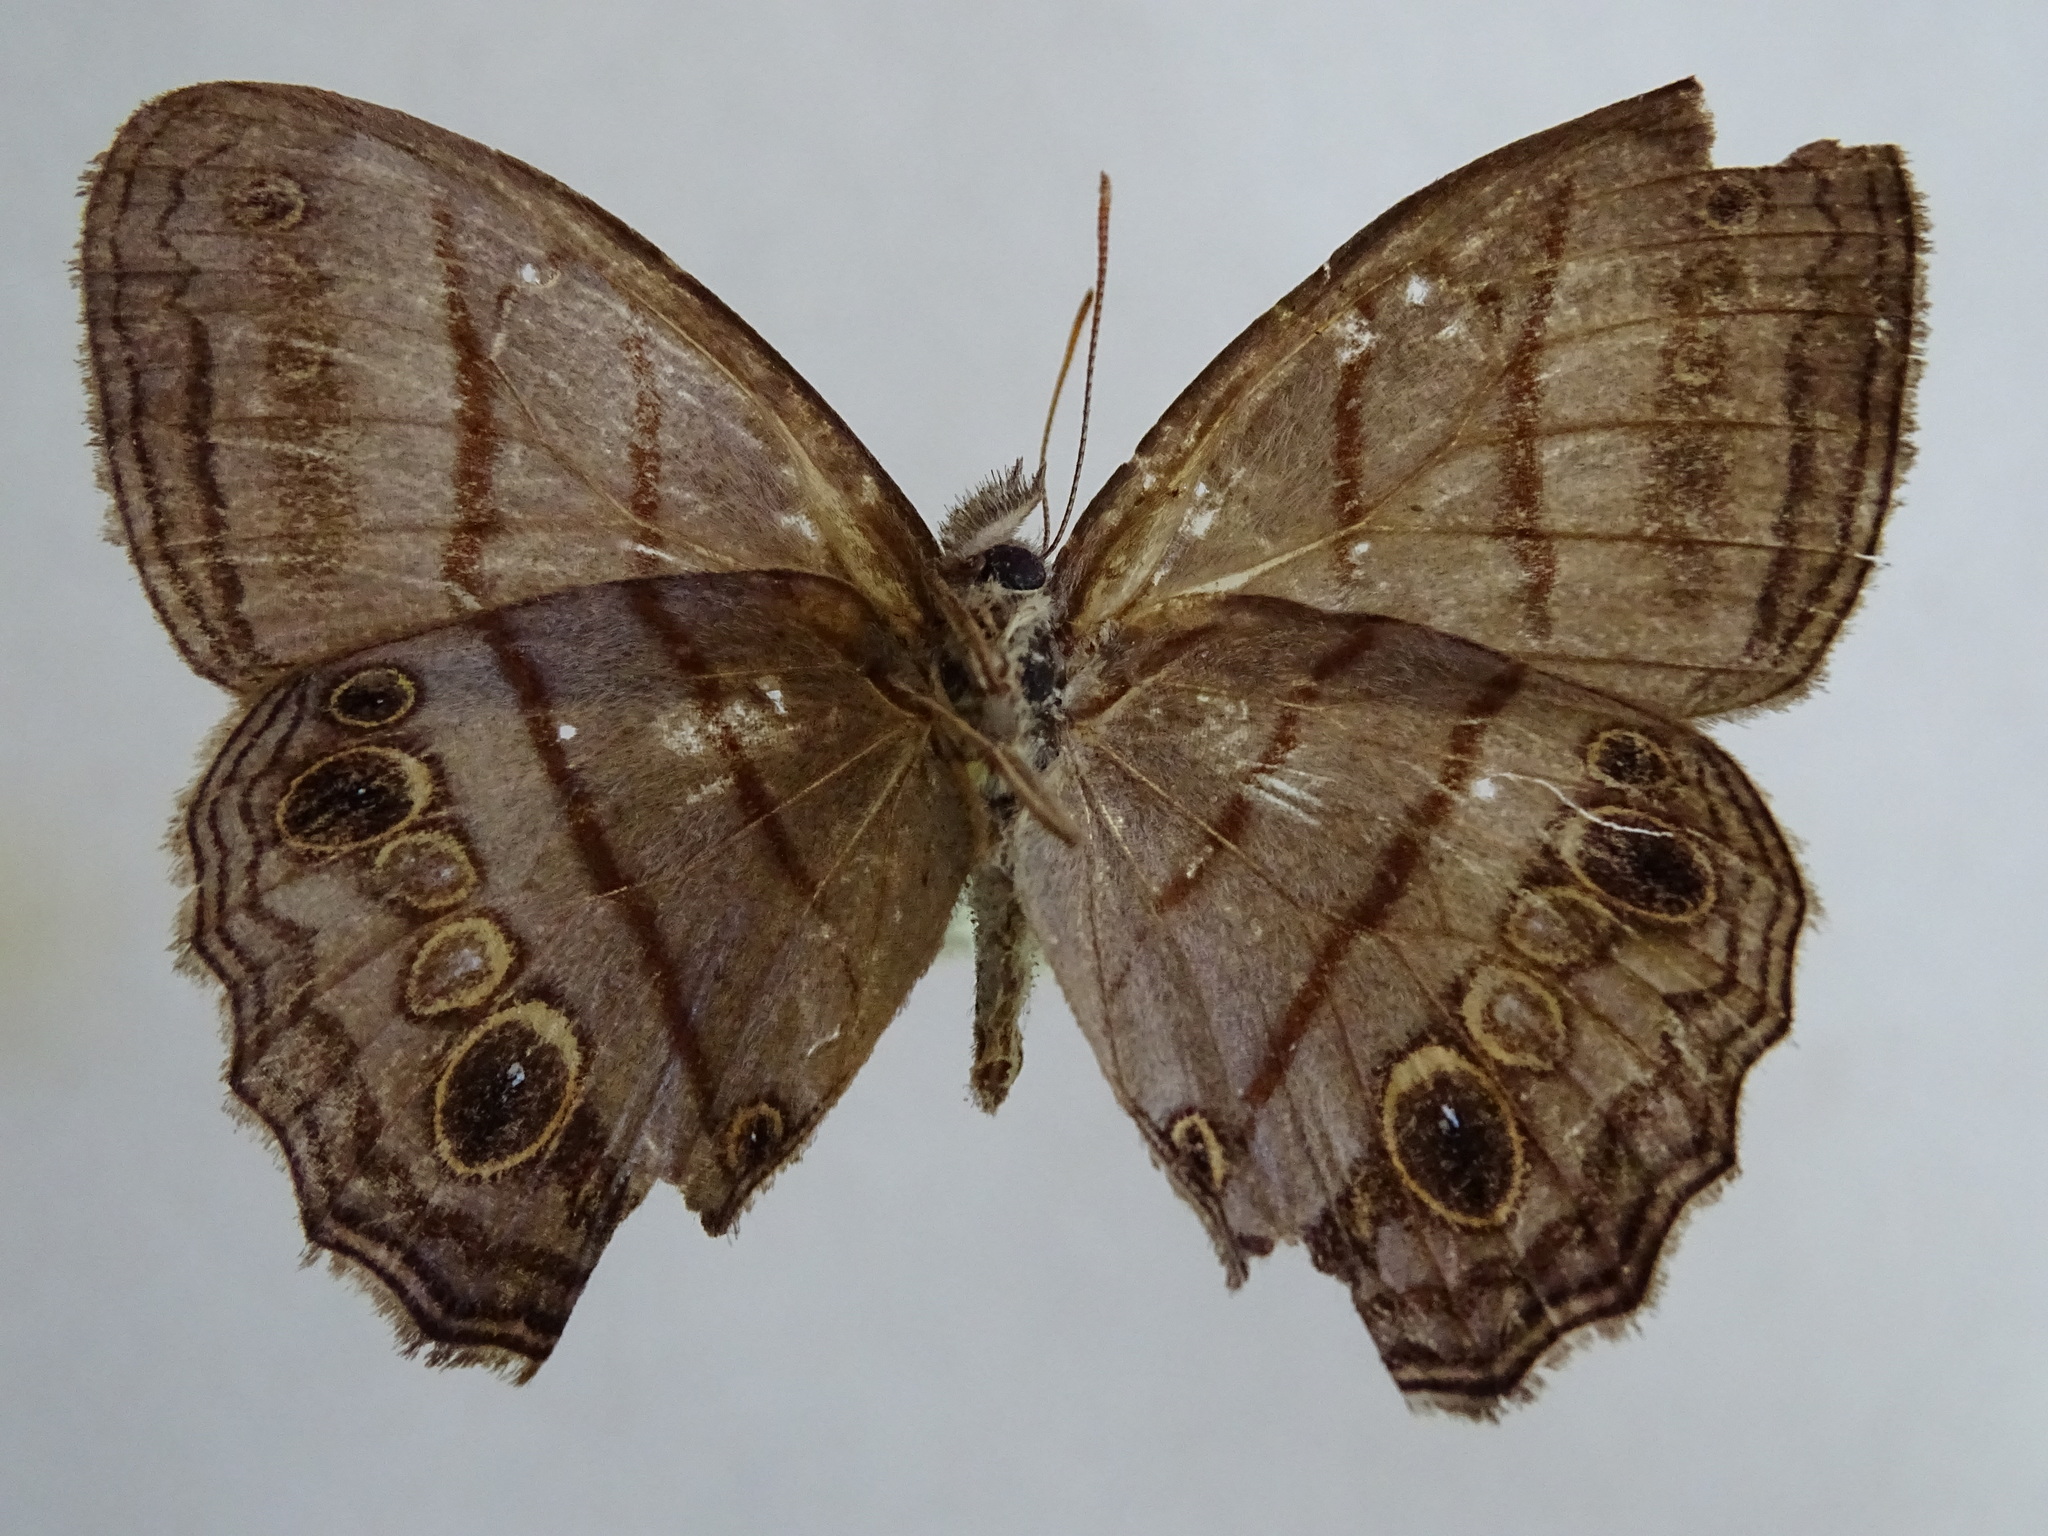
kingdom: Animalia
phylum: Arthropoda
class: Insecta
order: Lepidoptera
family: Nymphalidae
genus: Magneuptychia
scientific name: Magneuptychia libye
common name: Blue-gray satyr
